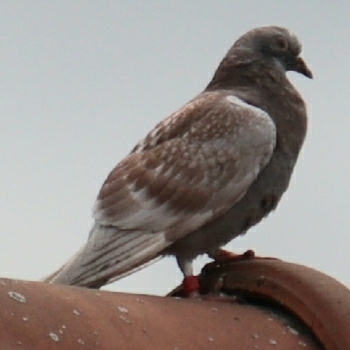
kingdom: Animalia
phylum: Chordata
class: Aves
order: Columbiformes
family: Columbidae
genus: Columba
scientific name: Columba livia
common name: Rock pigeon
